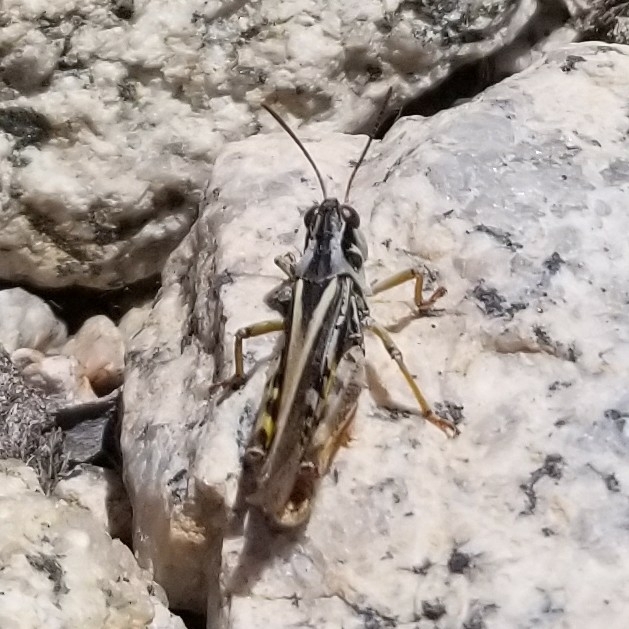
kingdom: Animalia
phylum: Arthropoda
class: Insecta
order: Orthoptera
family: Acrididae
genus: Camnula
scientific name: Camnula pellucida
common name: Clear-winged grasshopper
